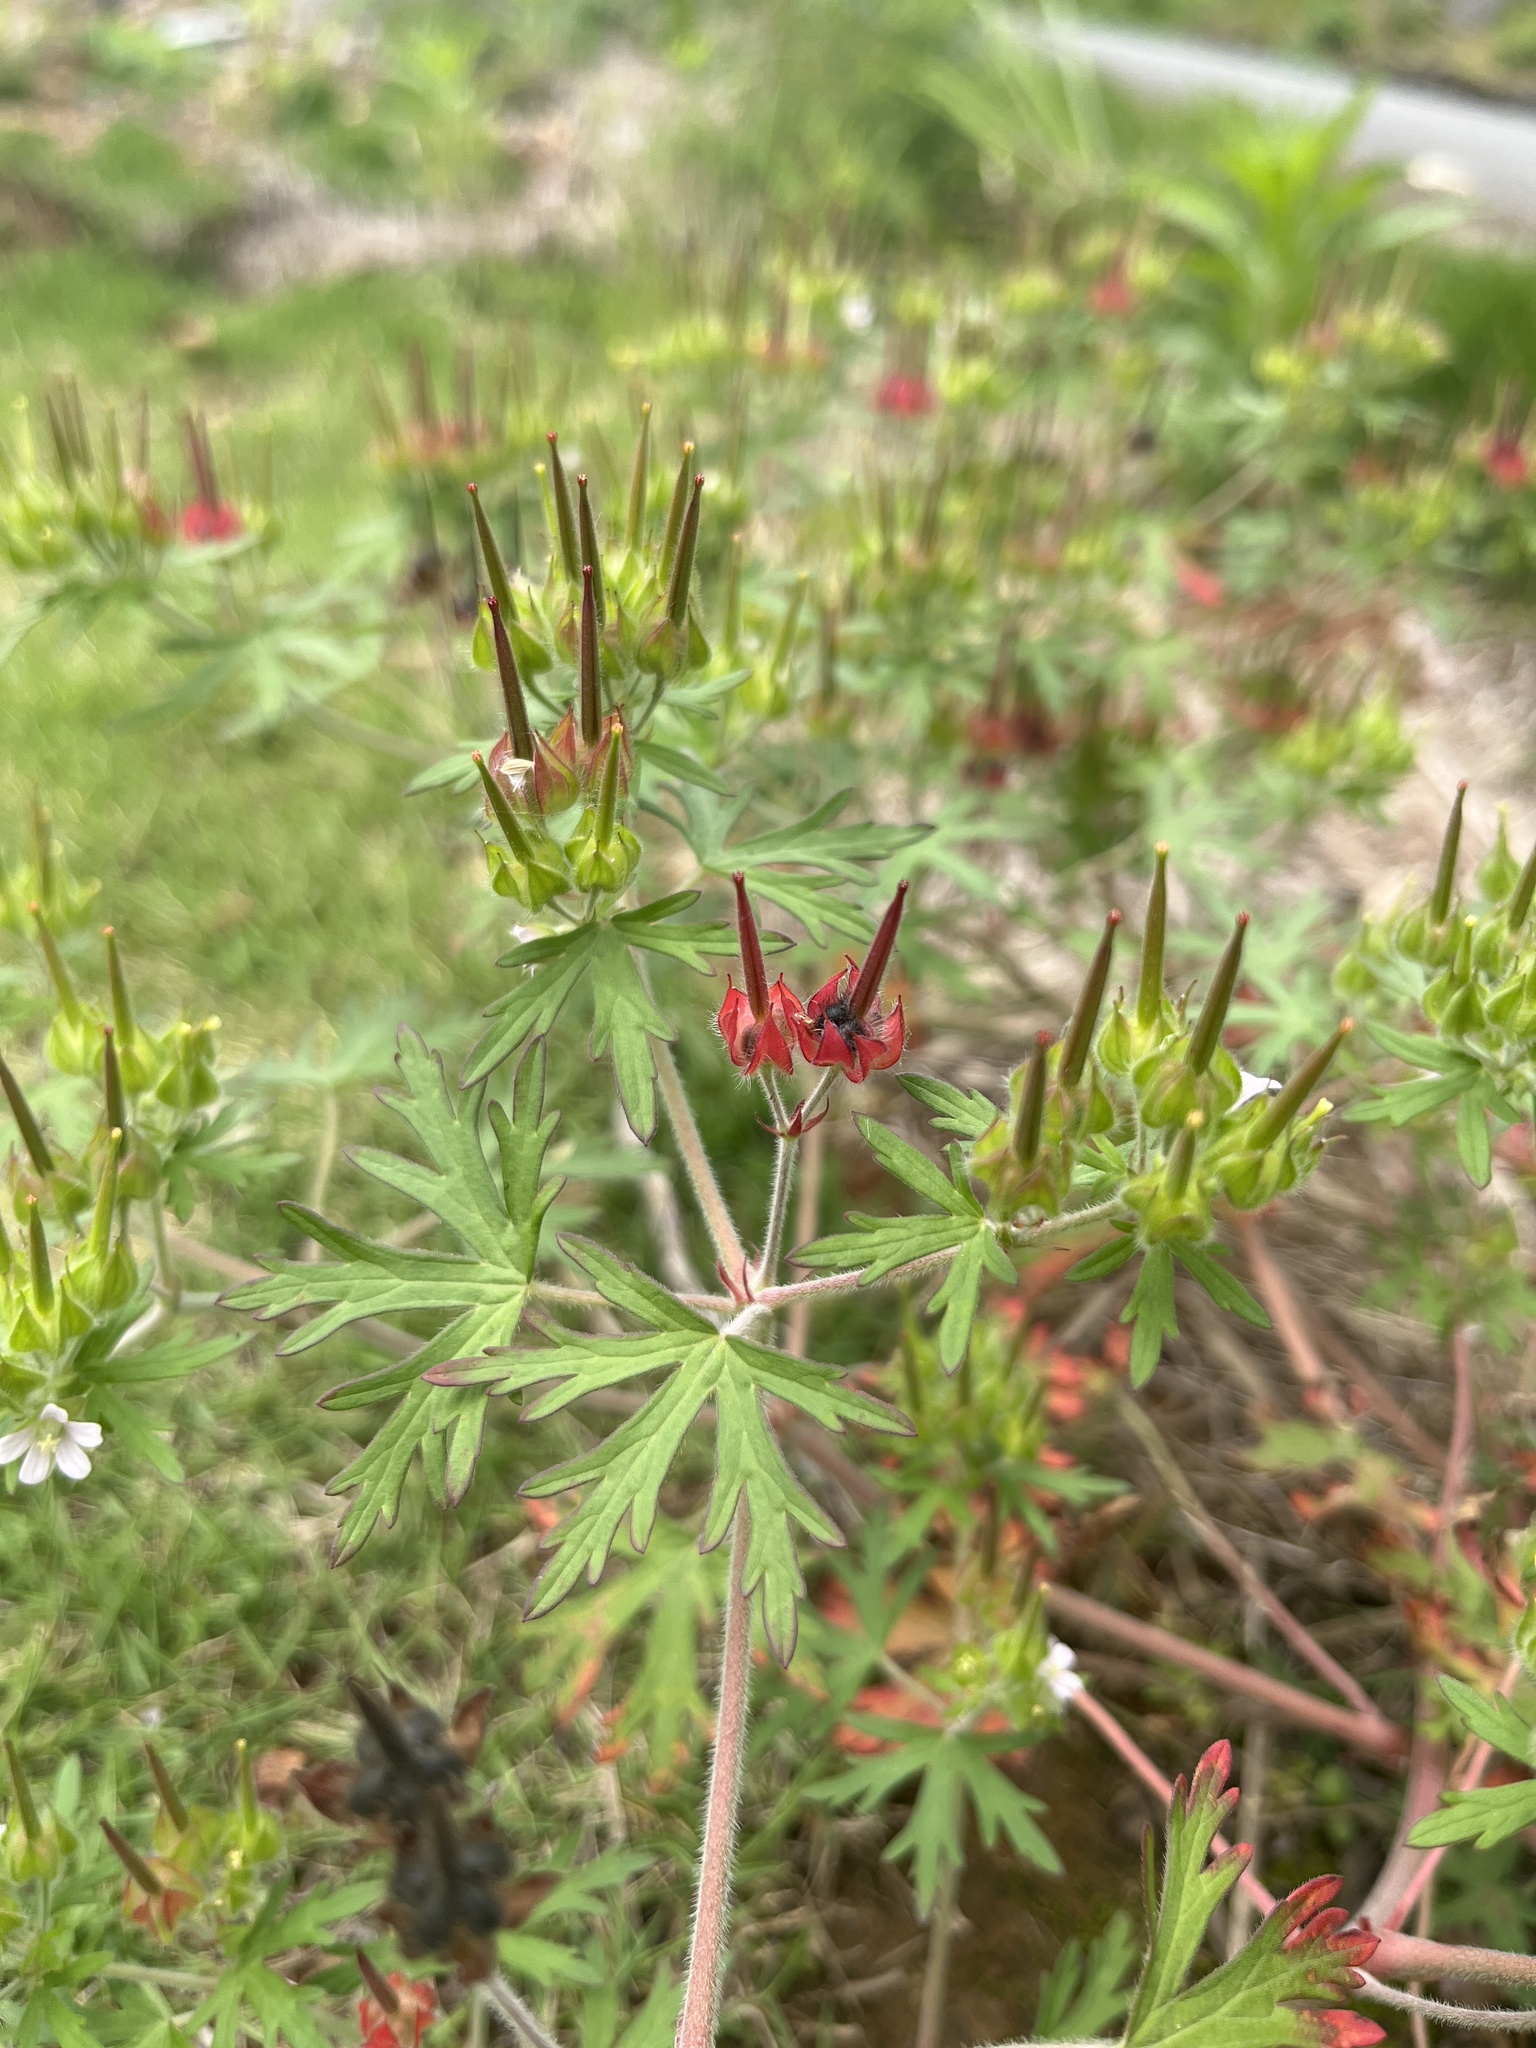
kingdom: Plantae
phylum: Tracheophyta
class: Magnoliopsida
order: Geraniales
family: Geraniaceae
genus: Geranium
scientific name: Geranium carolinianum
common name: Carolina crane's-bill
